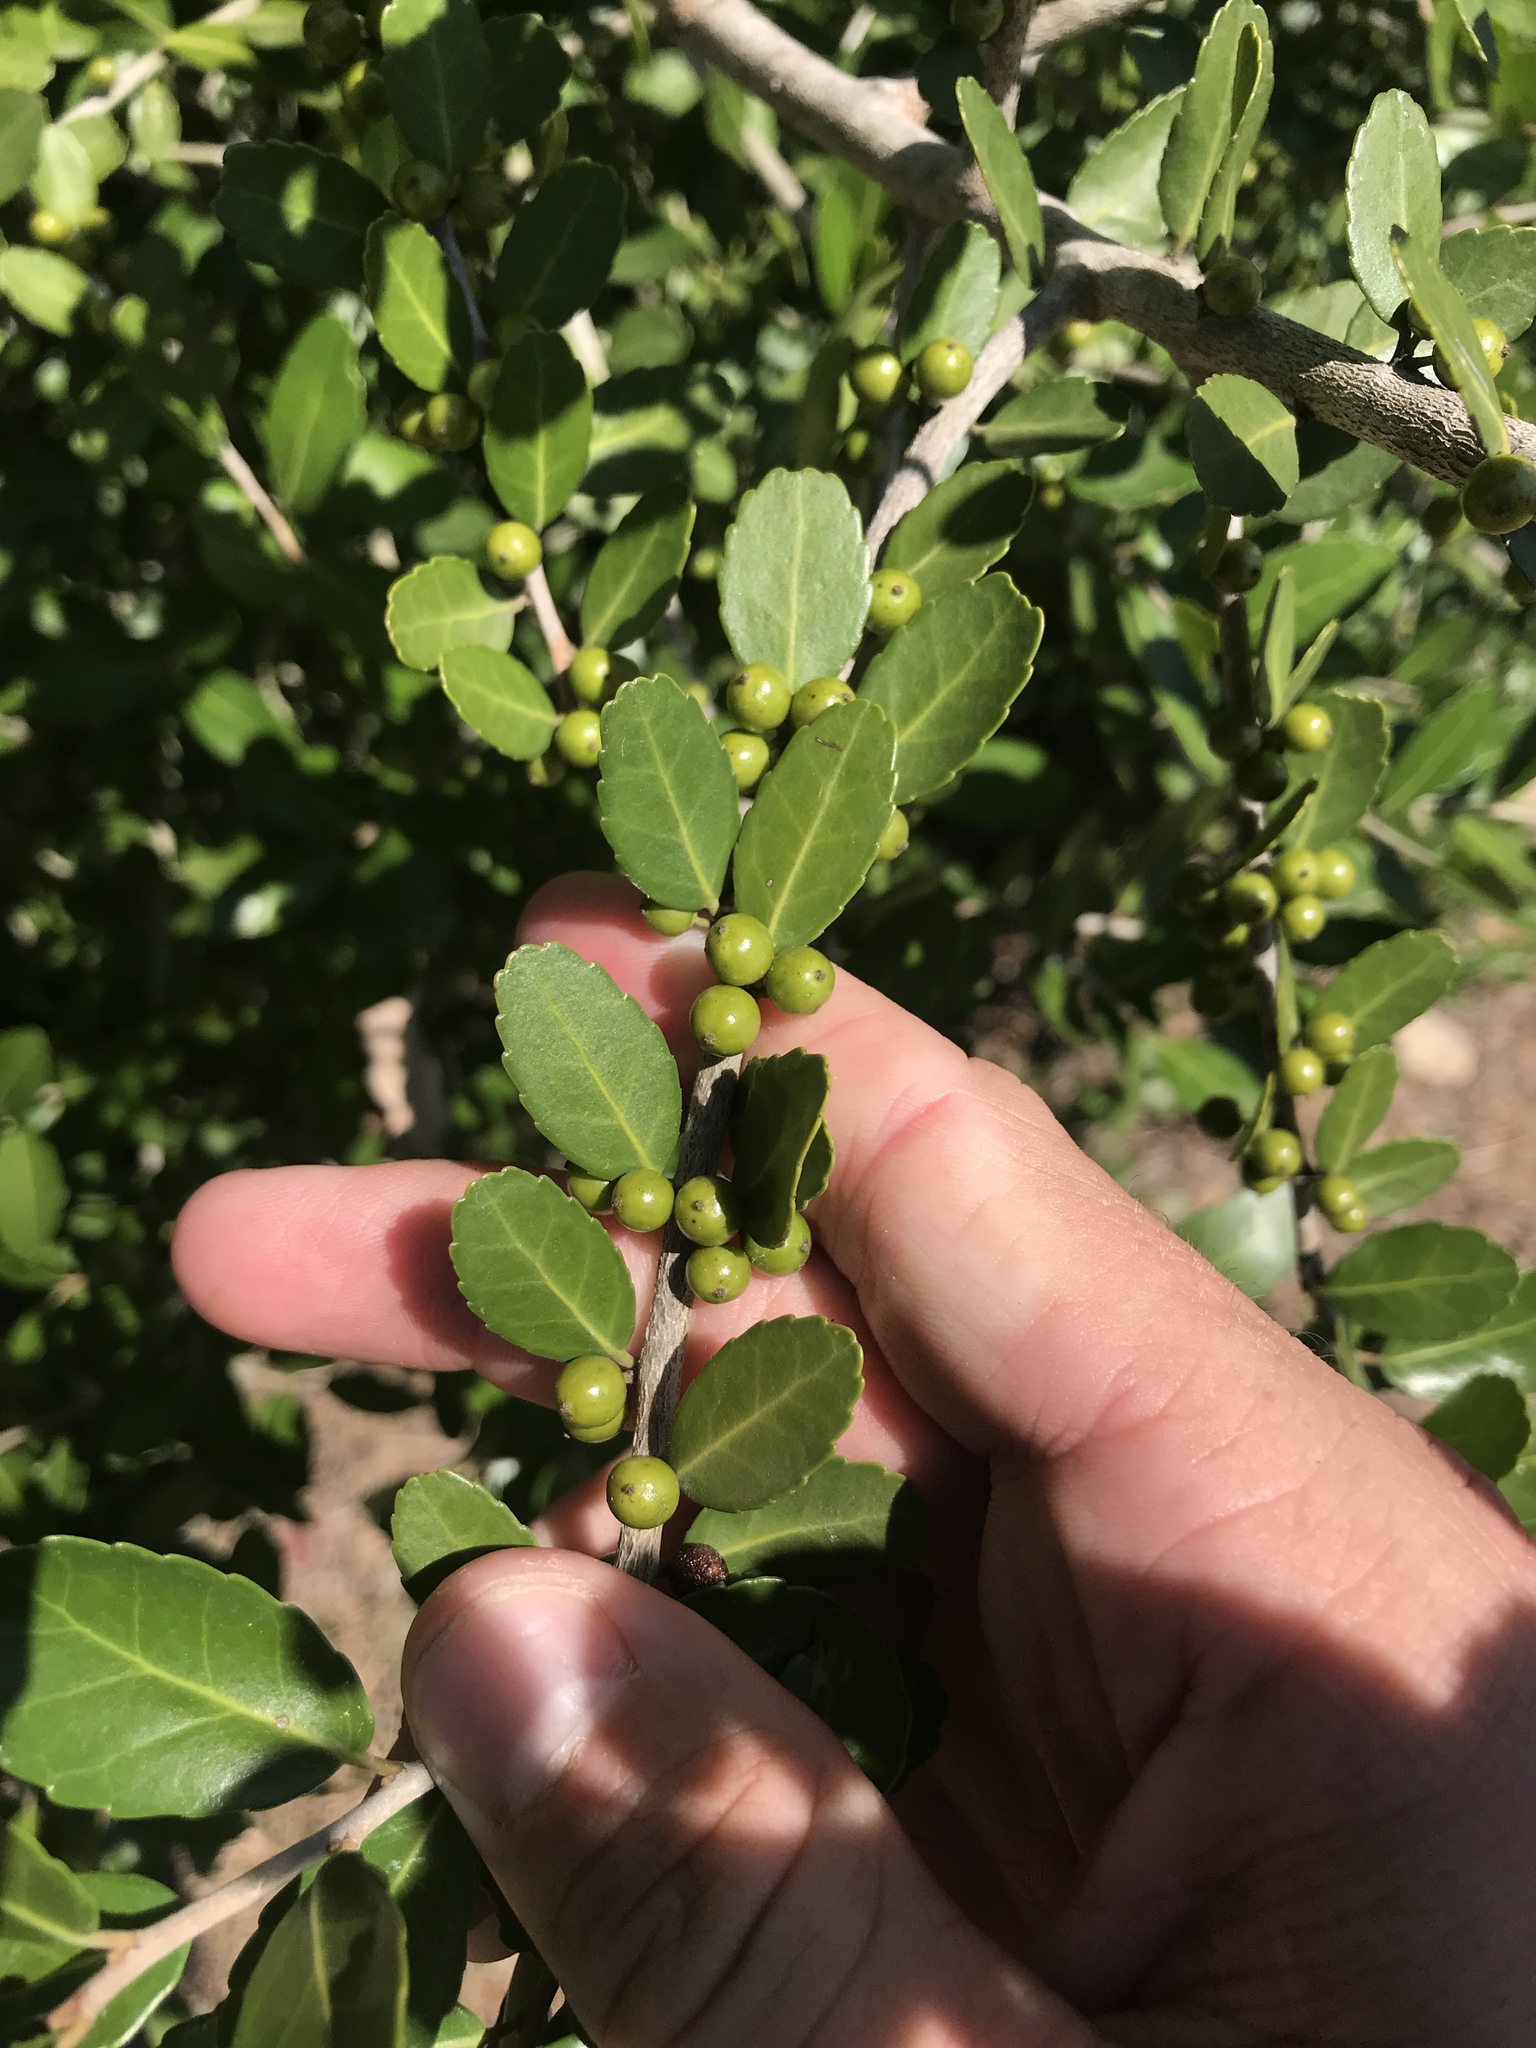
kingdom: Plantae
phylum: Tracheophyta
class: Magnoliopsida
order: Aquifoliales
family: Aquifoliaceae
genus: Ilex
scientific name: Ilex vomitoria
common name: Yaupon holly
